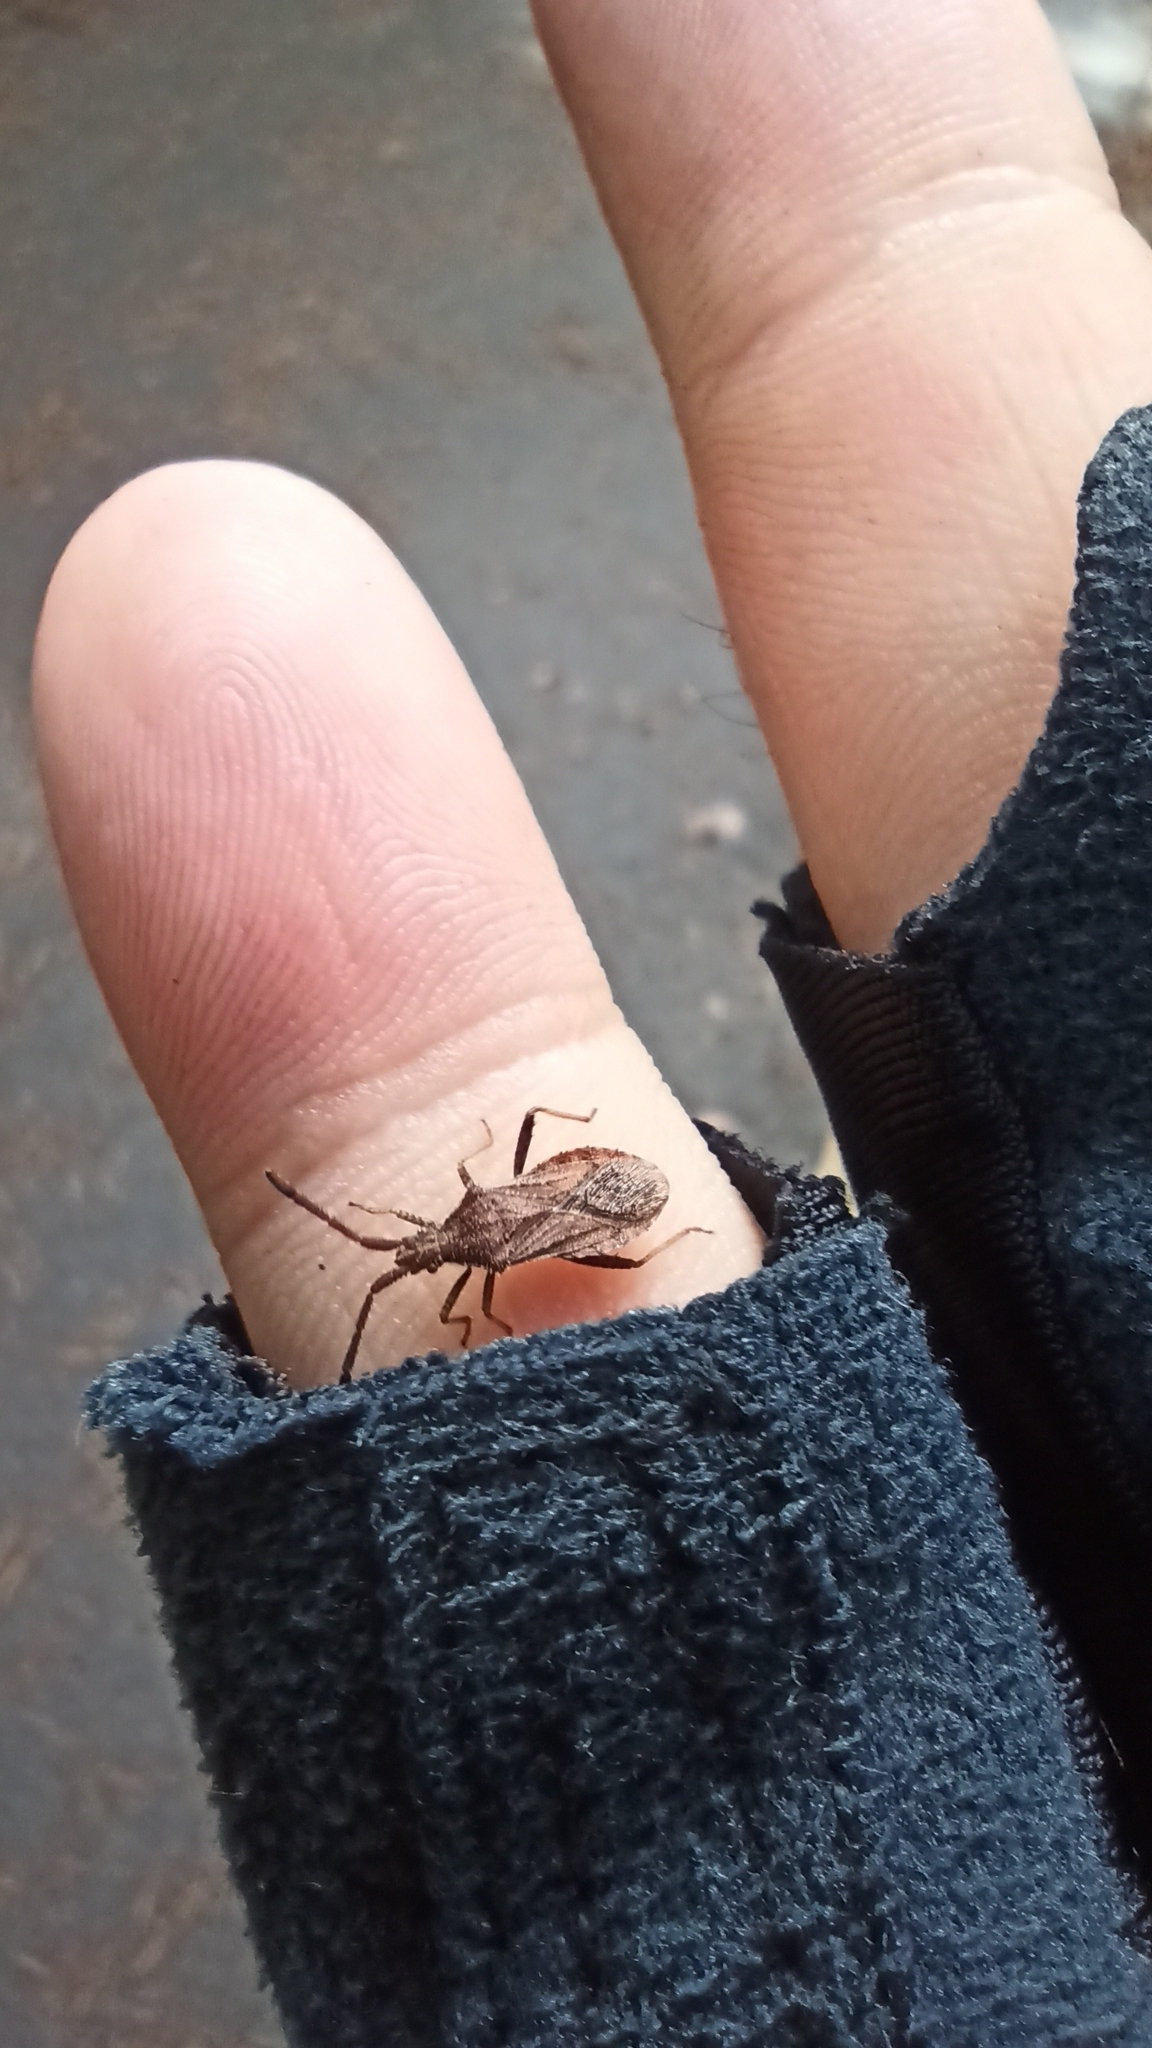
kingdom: Animalia
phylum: Arthropoda
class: Insecta
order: Hemiptera
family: Coreidae
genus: Coriomeris
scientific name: Coriomeris denticulatus
